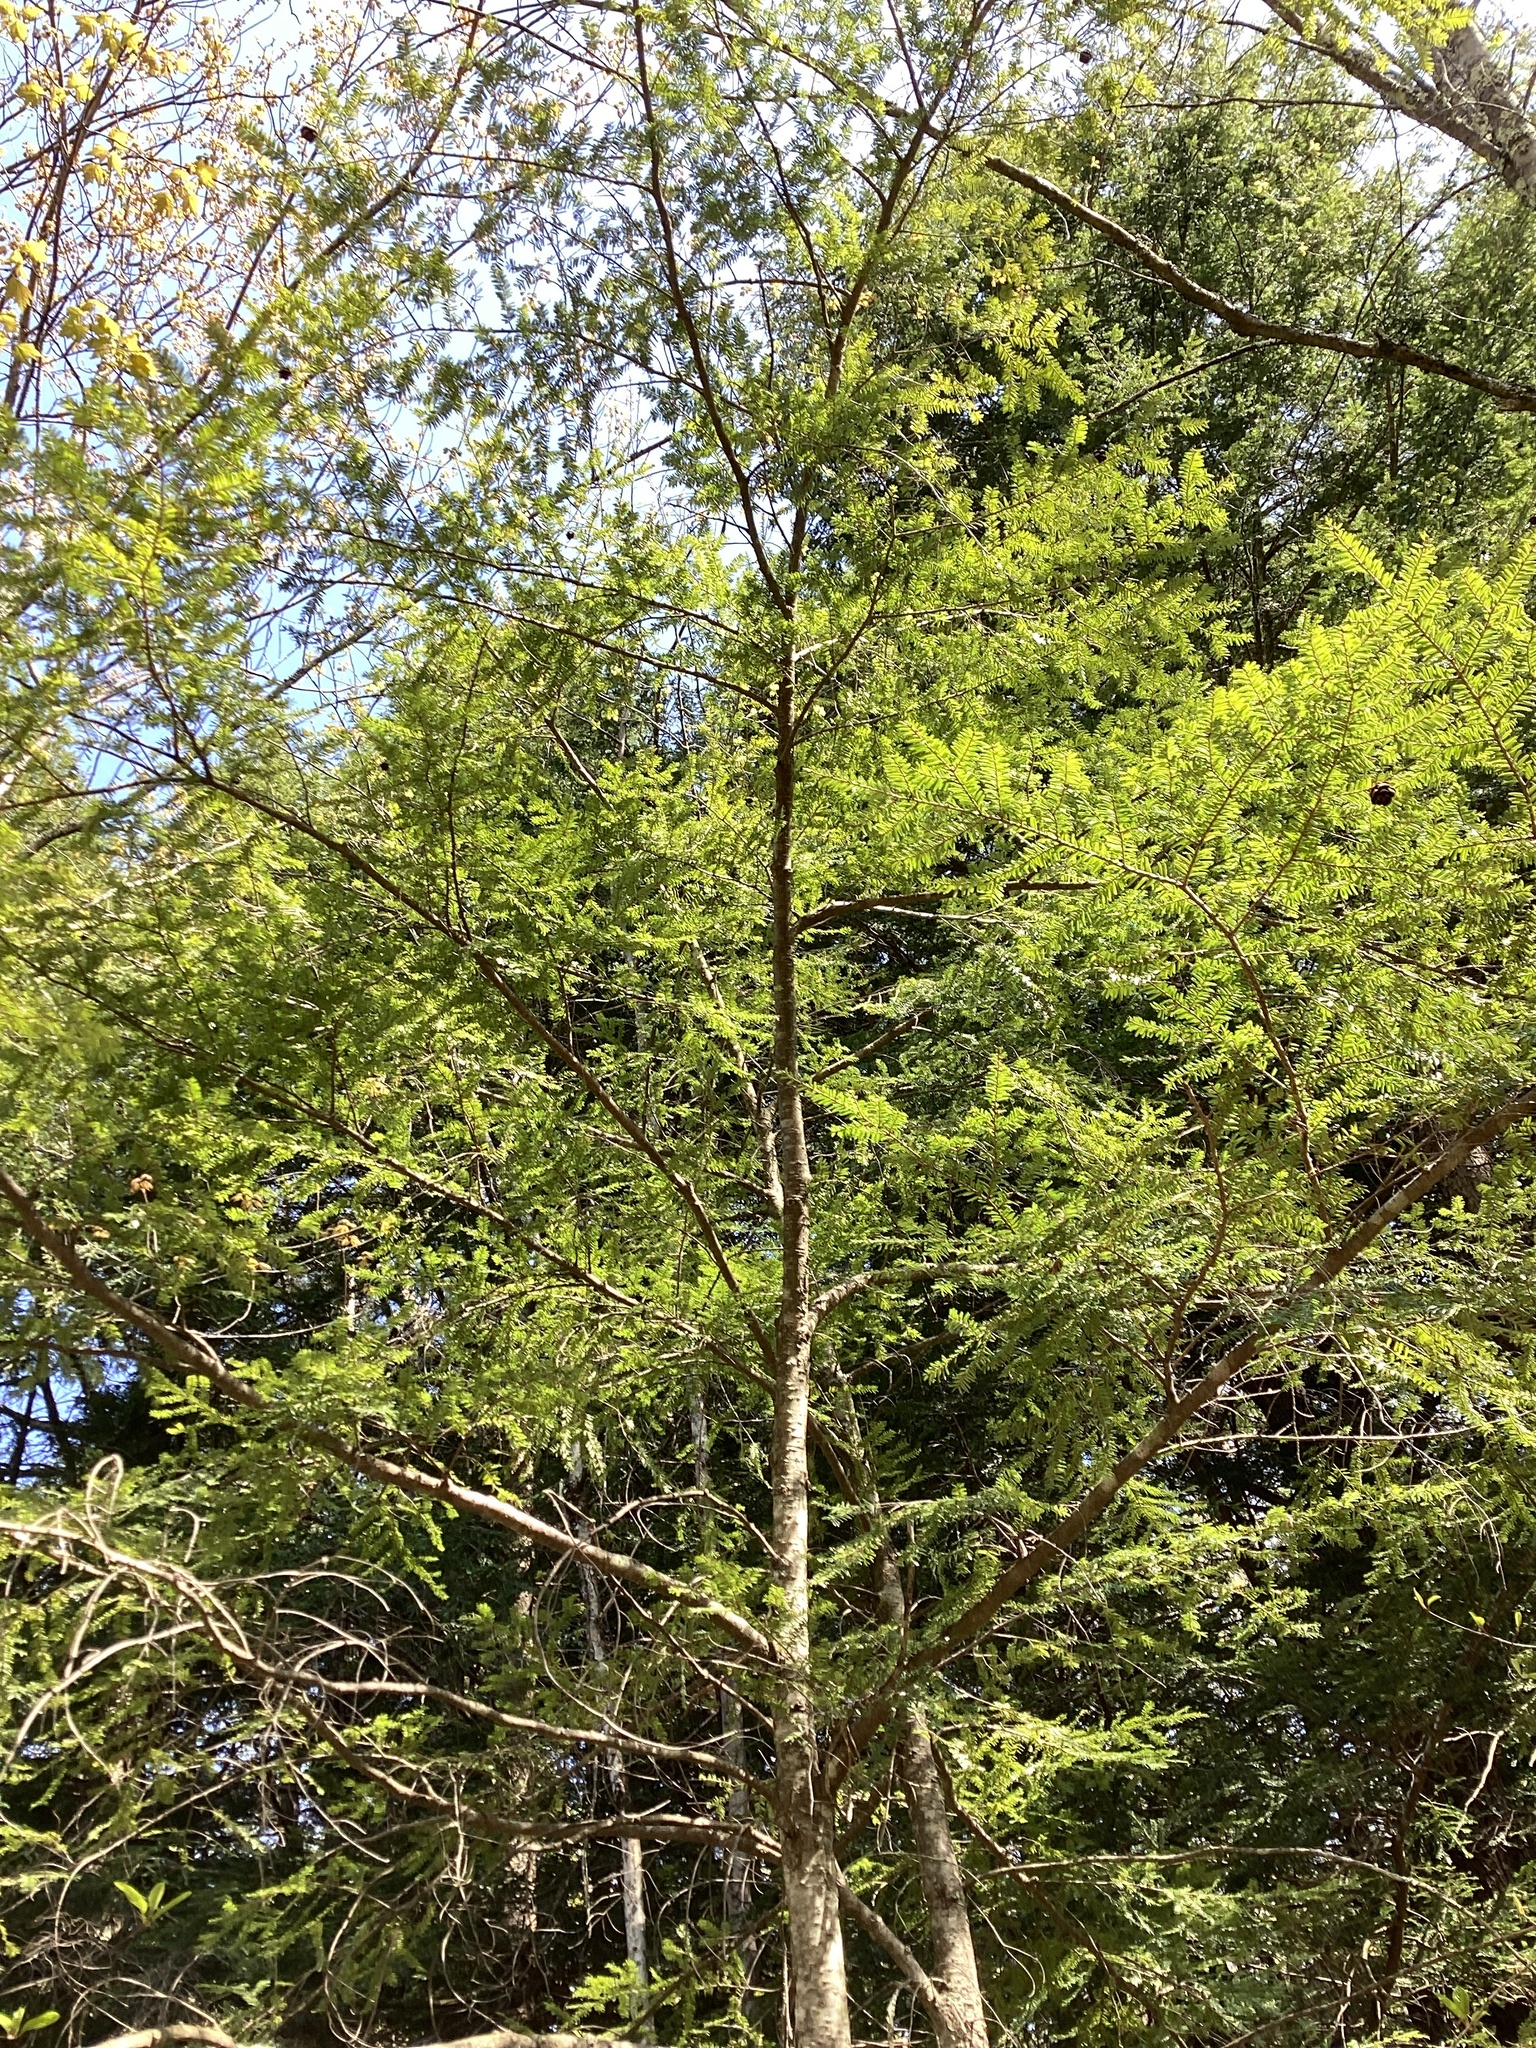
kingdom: Plantae
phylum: Tracheophyta
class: Pinopsida
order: Pinales
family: Pinaceae
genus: Tsuga
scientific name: Tsuga canadensis
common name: Eastern hemlock
